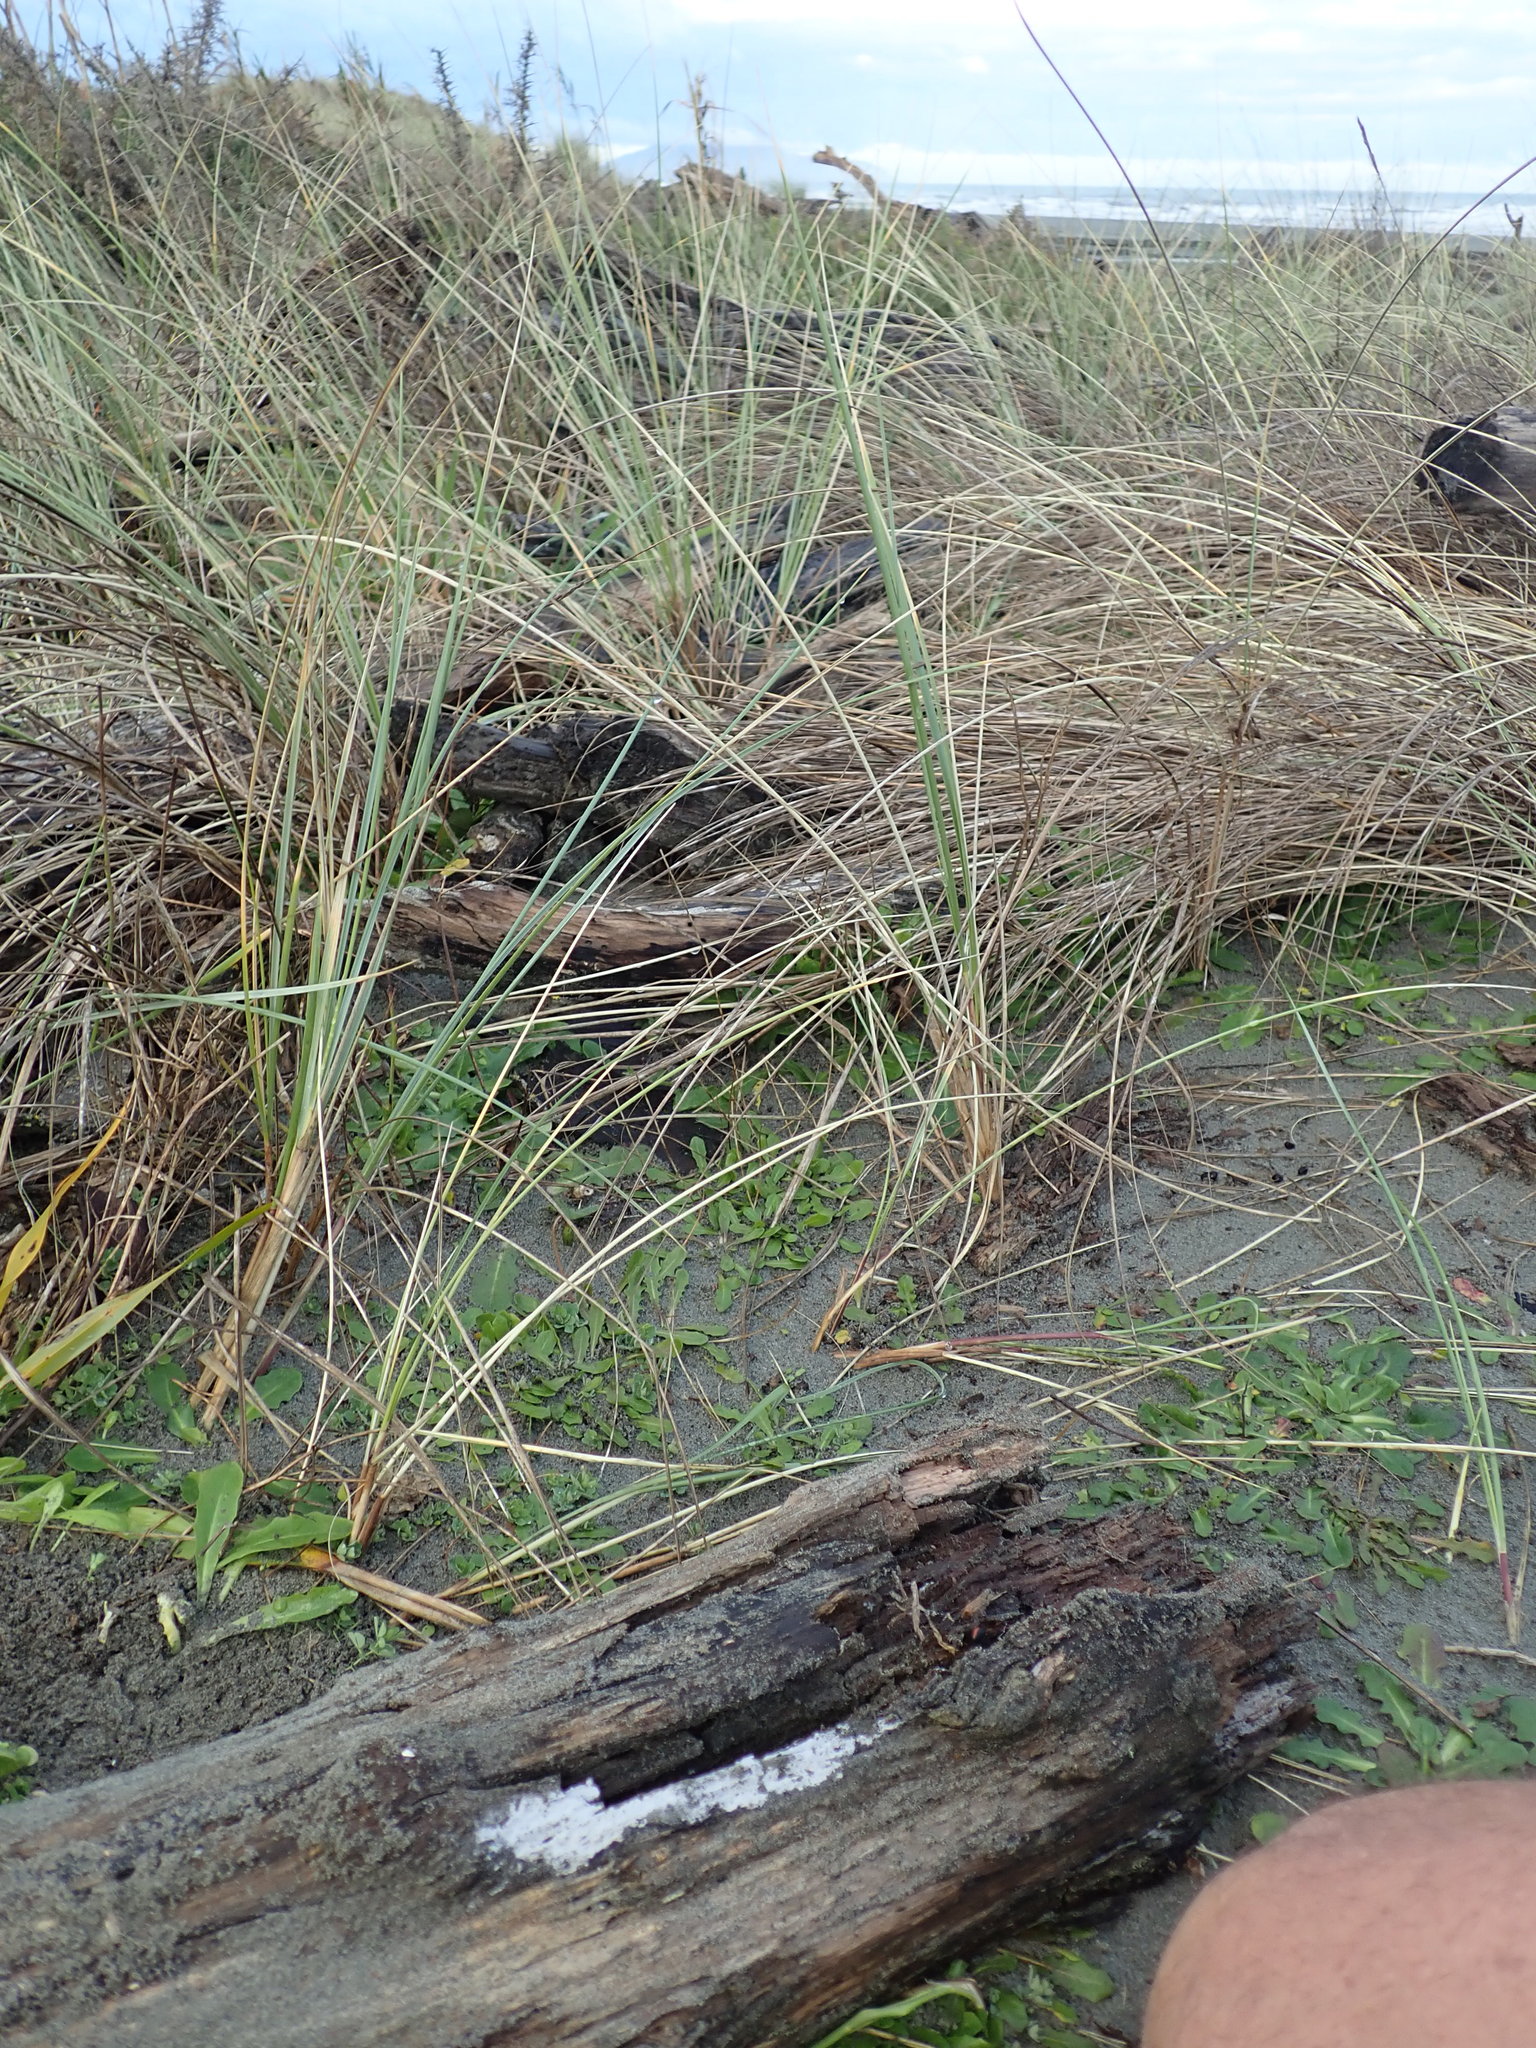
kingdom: Animalia
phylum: Arthropoda
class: Arachnida
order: Araneae
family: Theridiidae
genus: Latrodectus
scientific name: Latrodectus katipo
